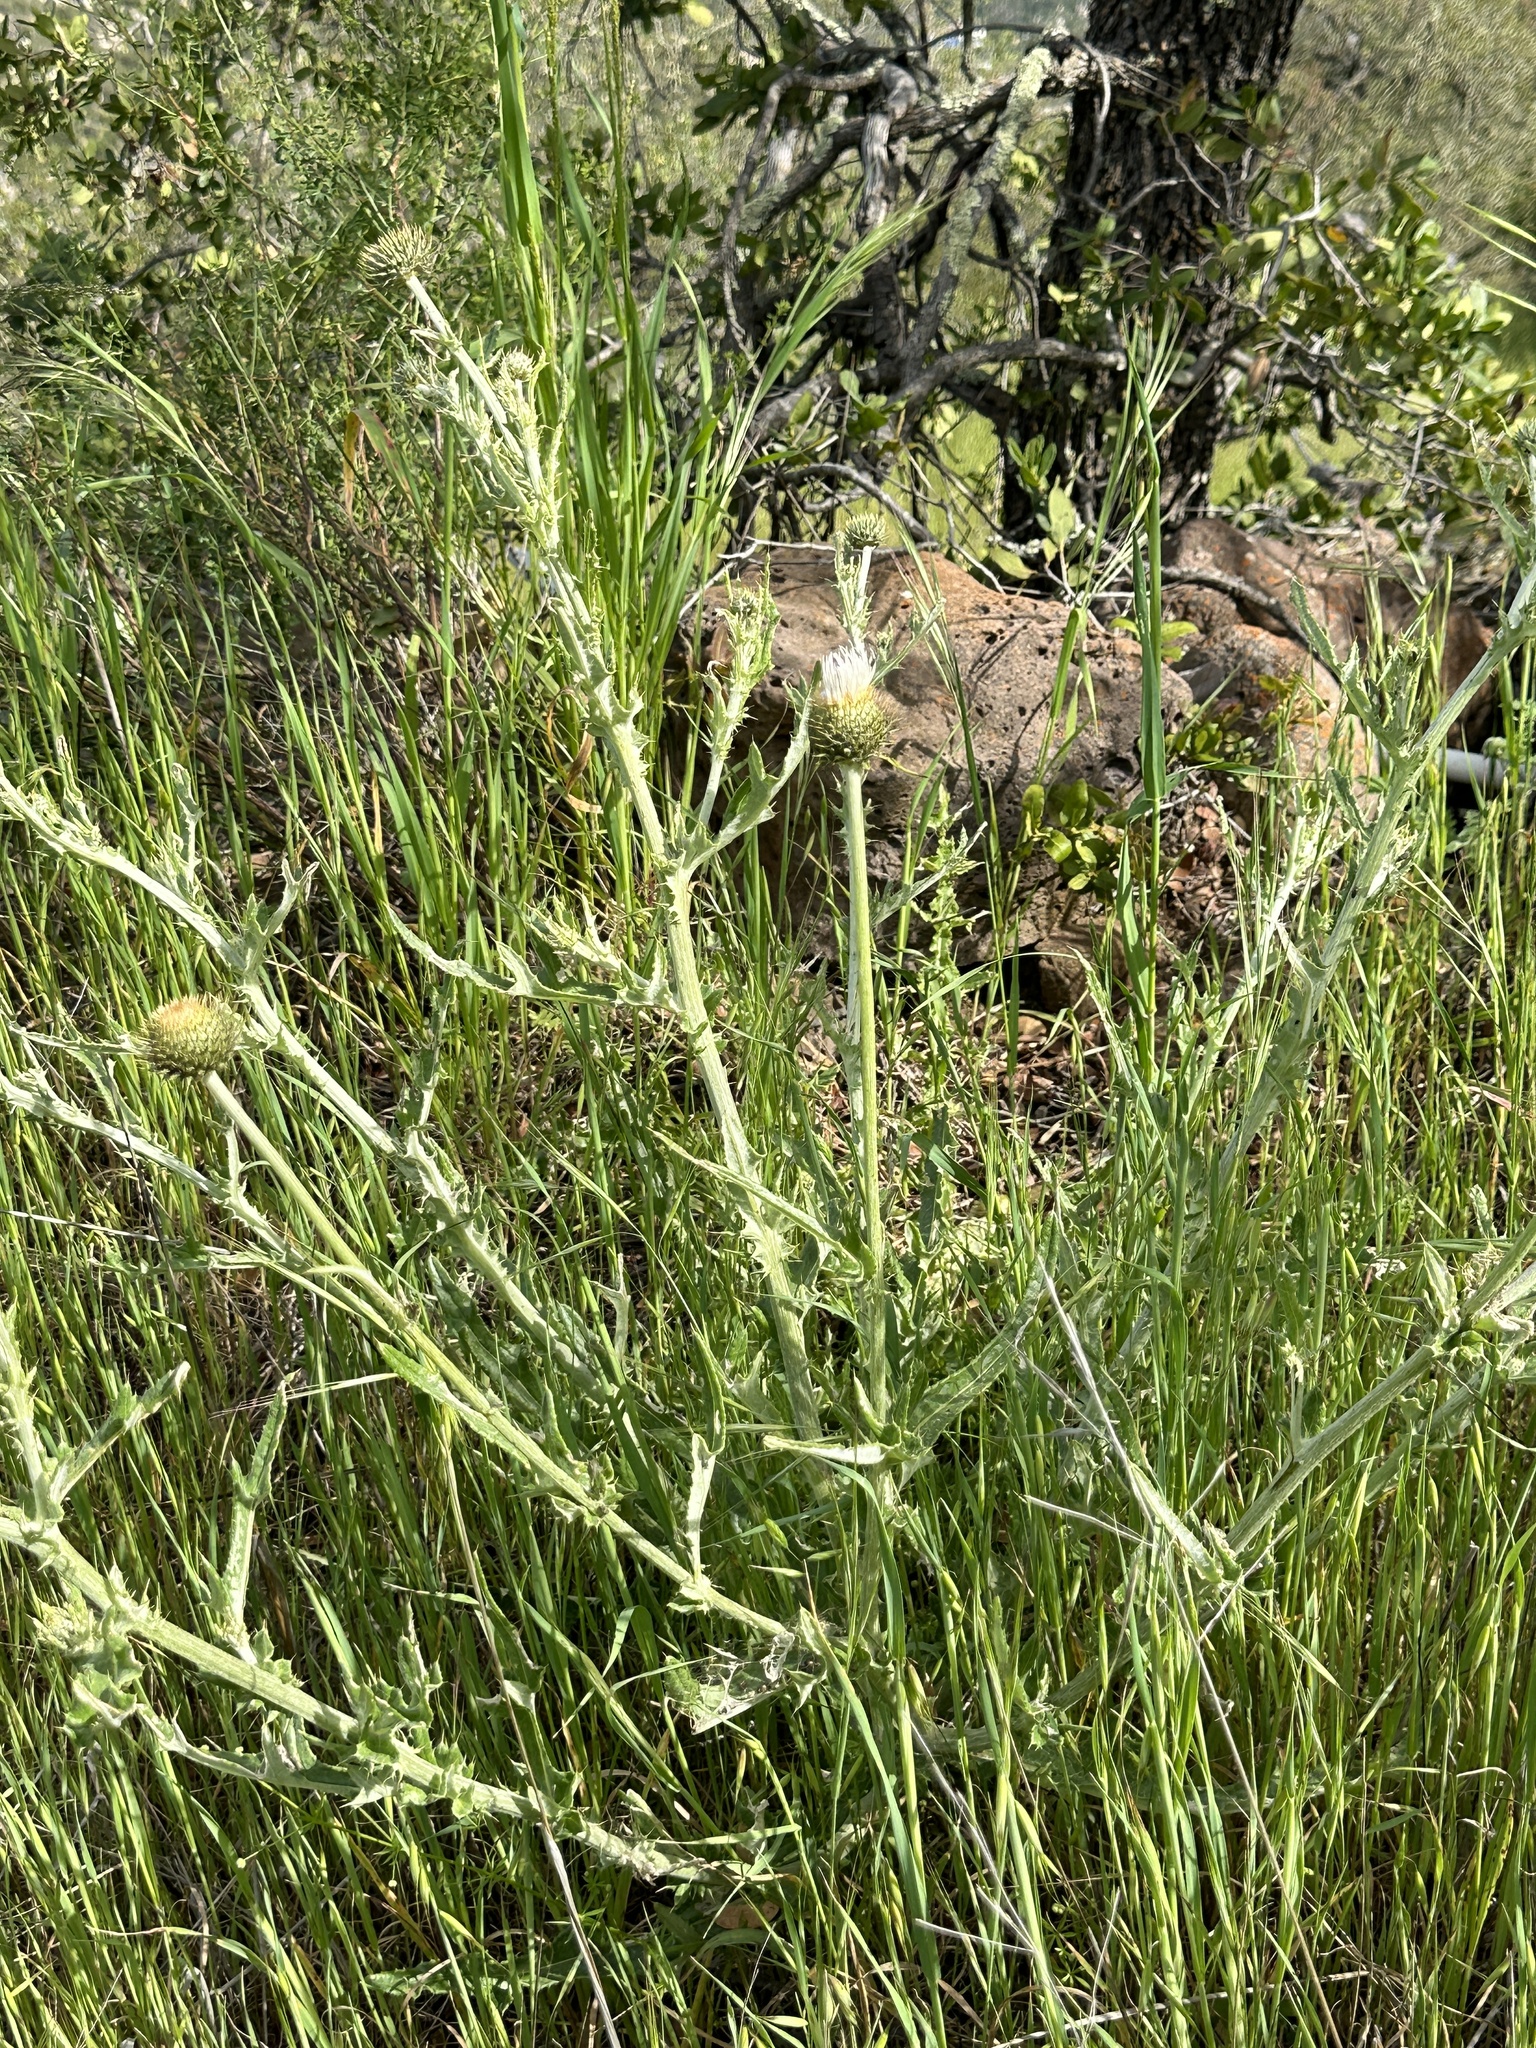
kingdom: Plantae
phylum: Tracheophyta
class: Magnoliopsida
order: Asterales
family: Asteraceae
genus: Cirsium
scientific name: Cirsium occidentale
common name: Western thistle
